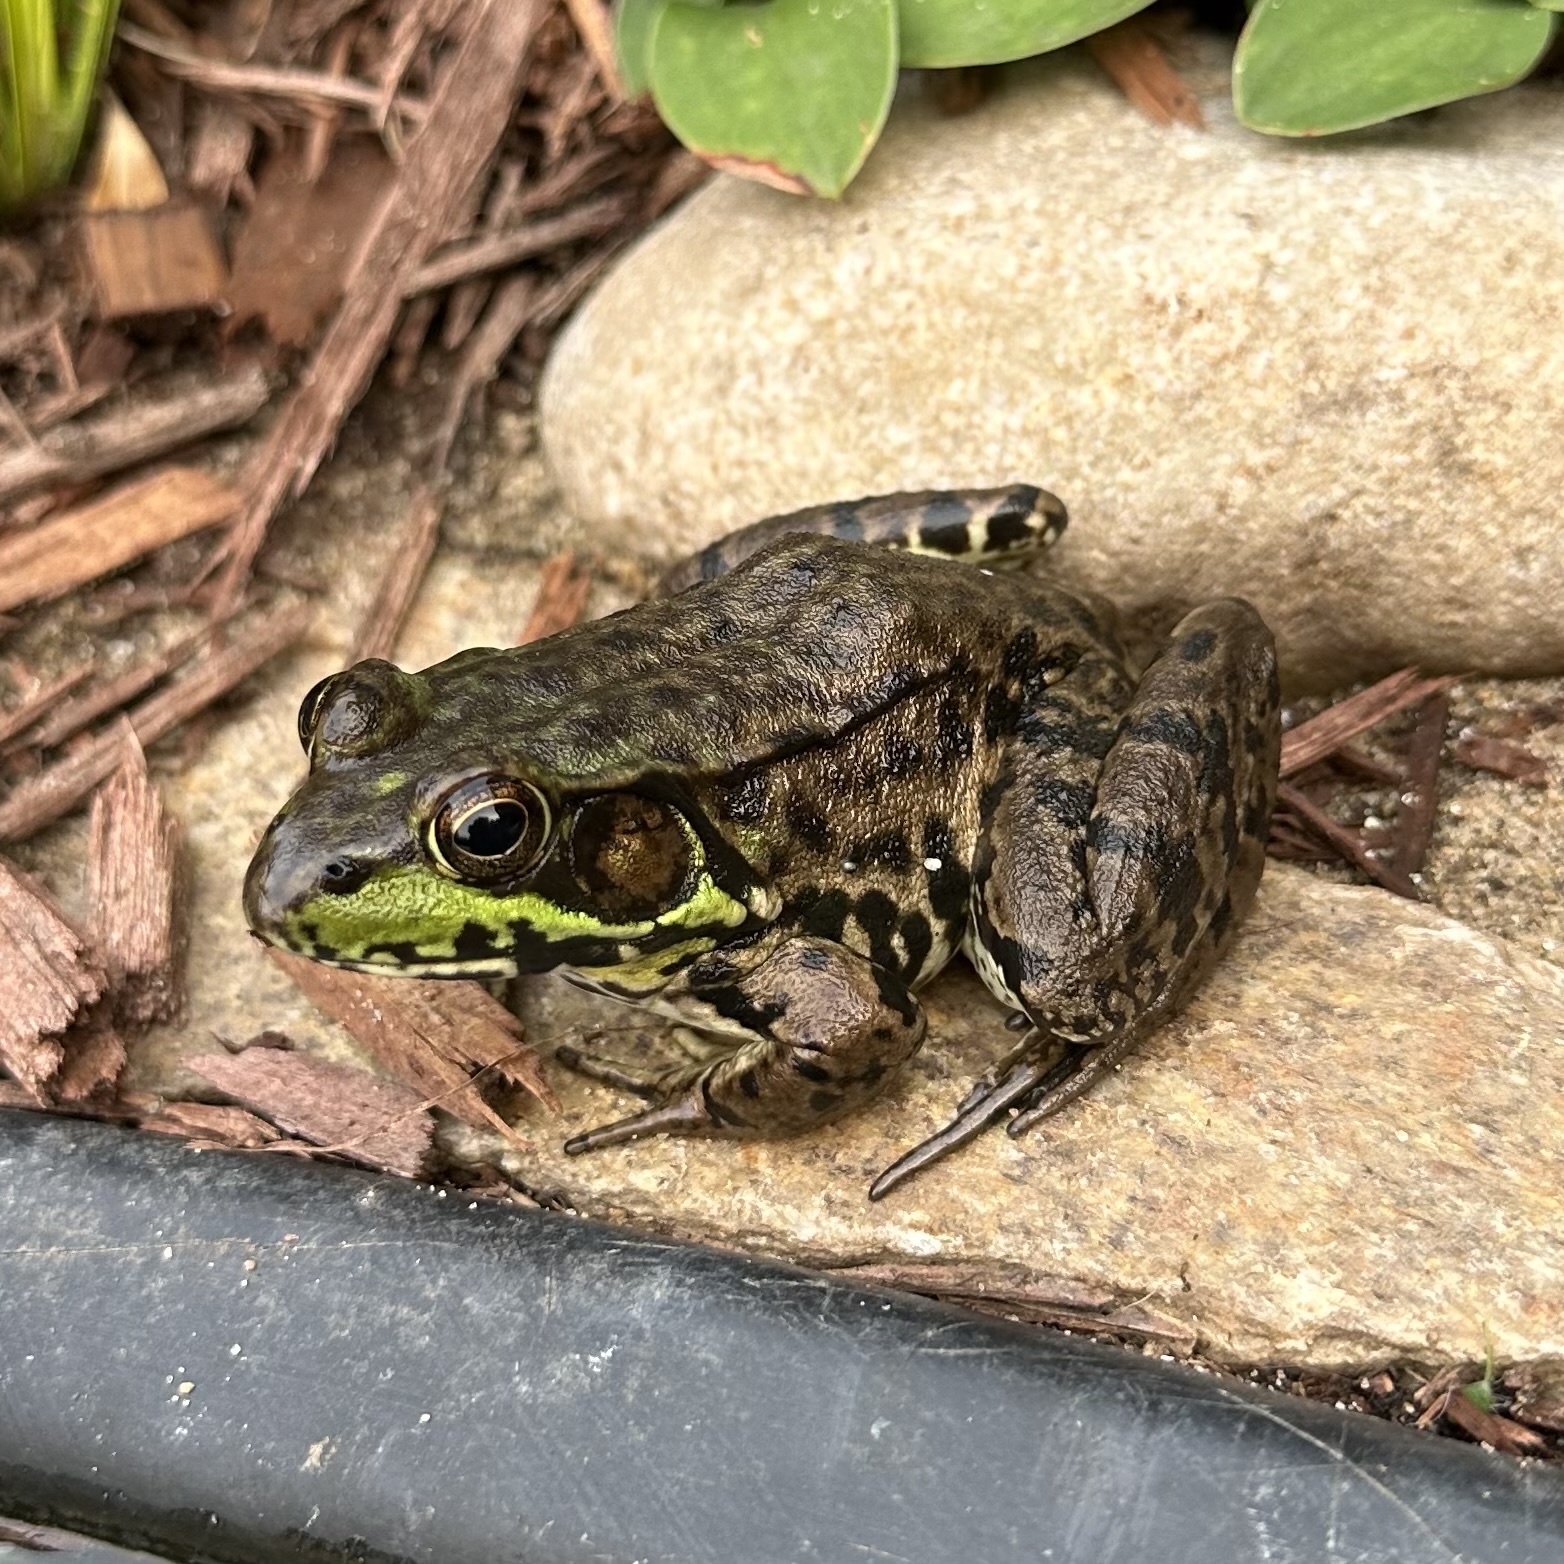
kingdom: Animalia
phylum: Chordata
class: Amphibia
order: Anura
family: Ranidae
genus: Lithobates
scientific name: Lithobates clamitans
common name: Green frog
